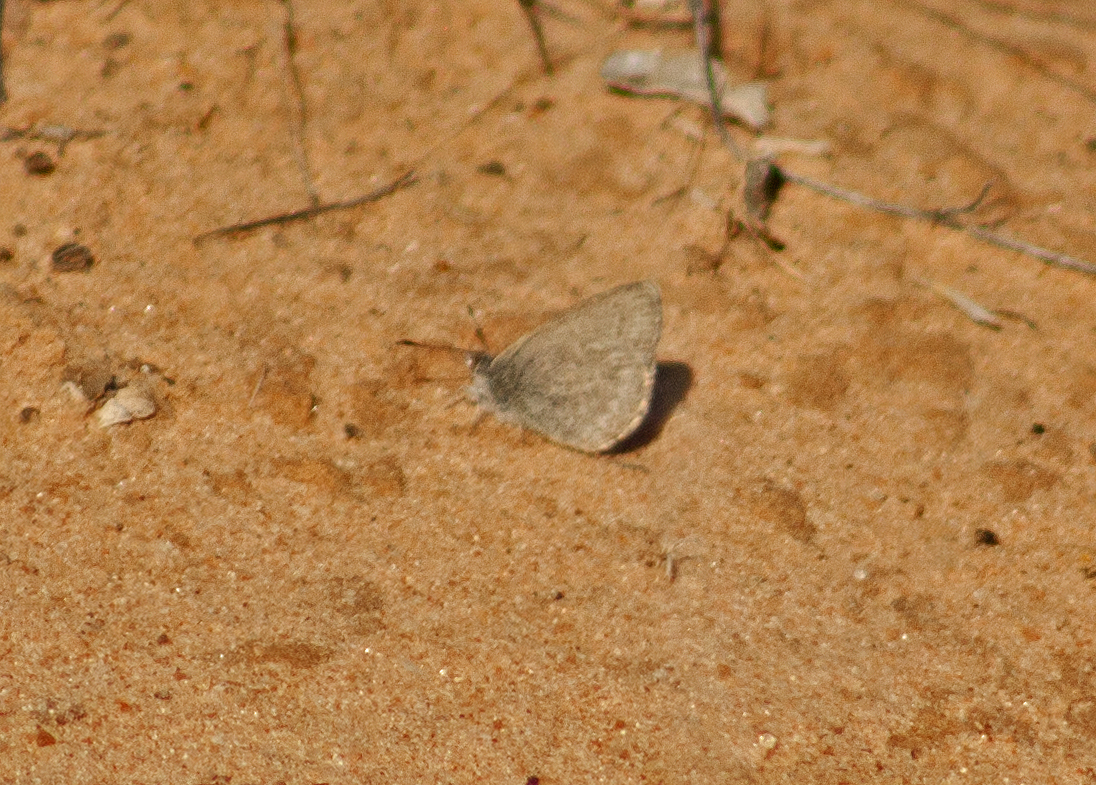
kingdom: Animalia
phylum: Arthropoda
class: Insecta
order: Lepidoptera
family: Lycaenidae
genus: Zizina
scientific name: Zizina labradus
